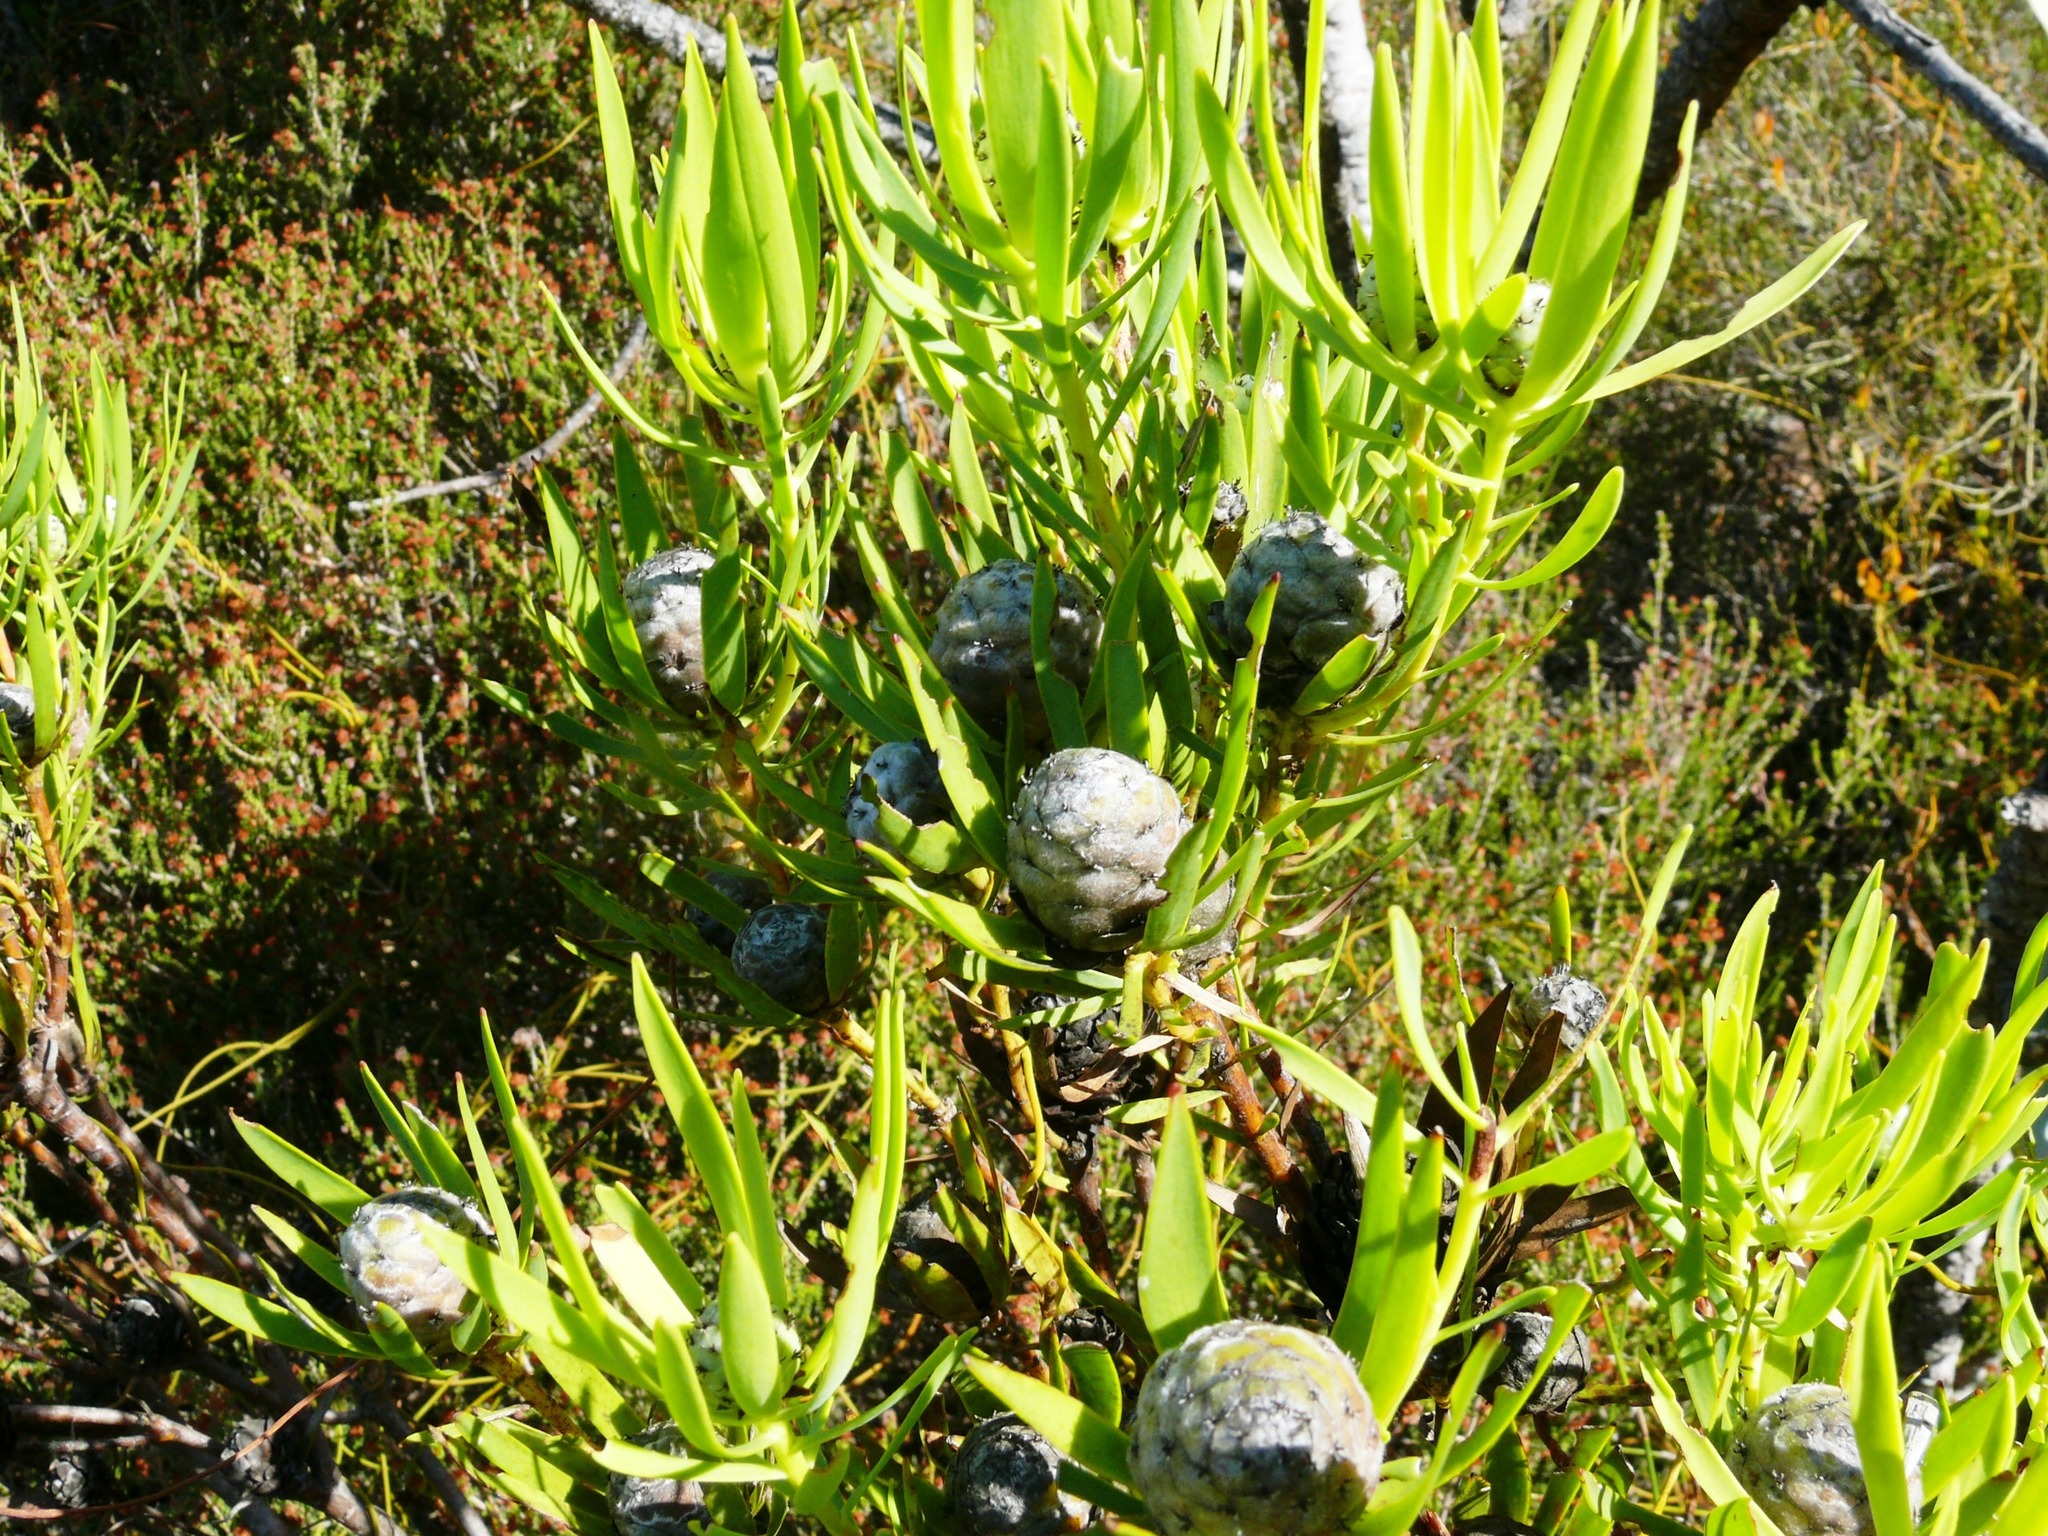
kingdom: Plantae
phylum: Tracheophyta
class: Magnoliopsida
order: Proteales
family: Proteaceae
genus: Leucadendron
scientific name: Leucadendron salignum
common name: Common sunshine conebush
